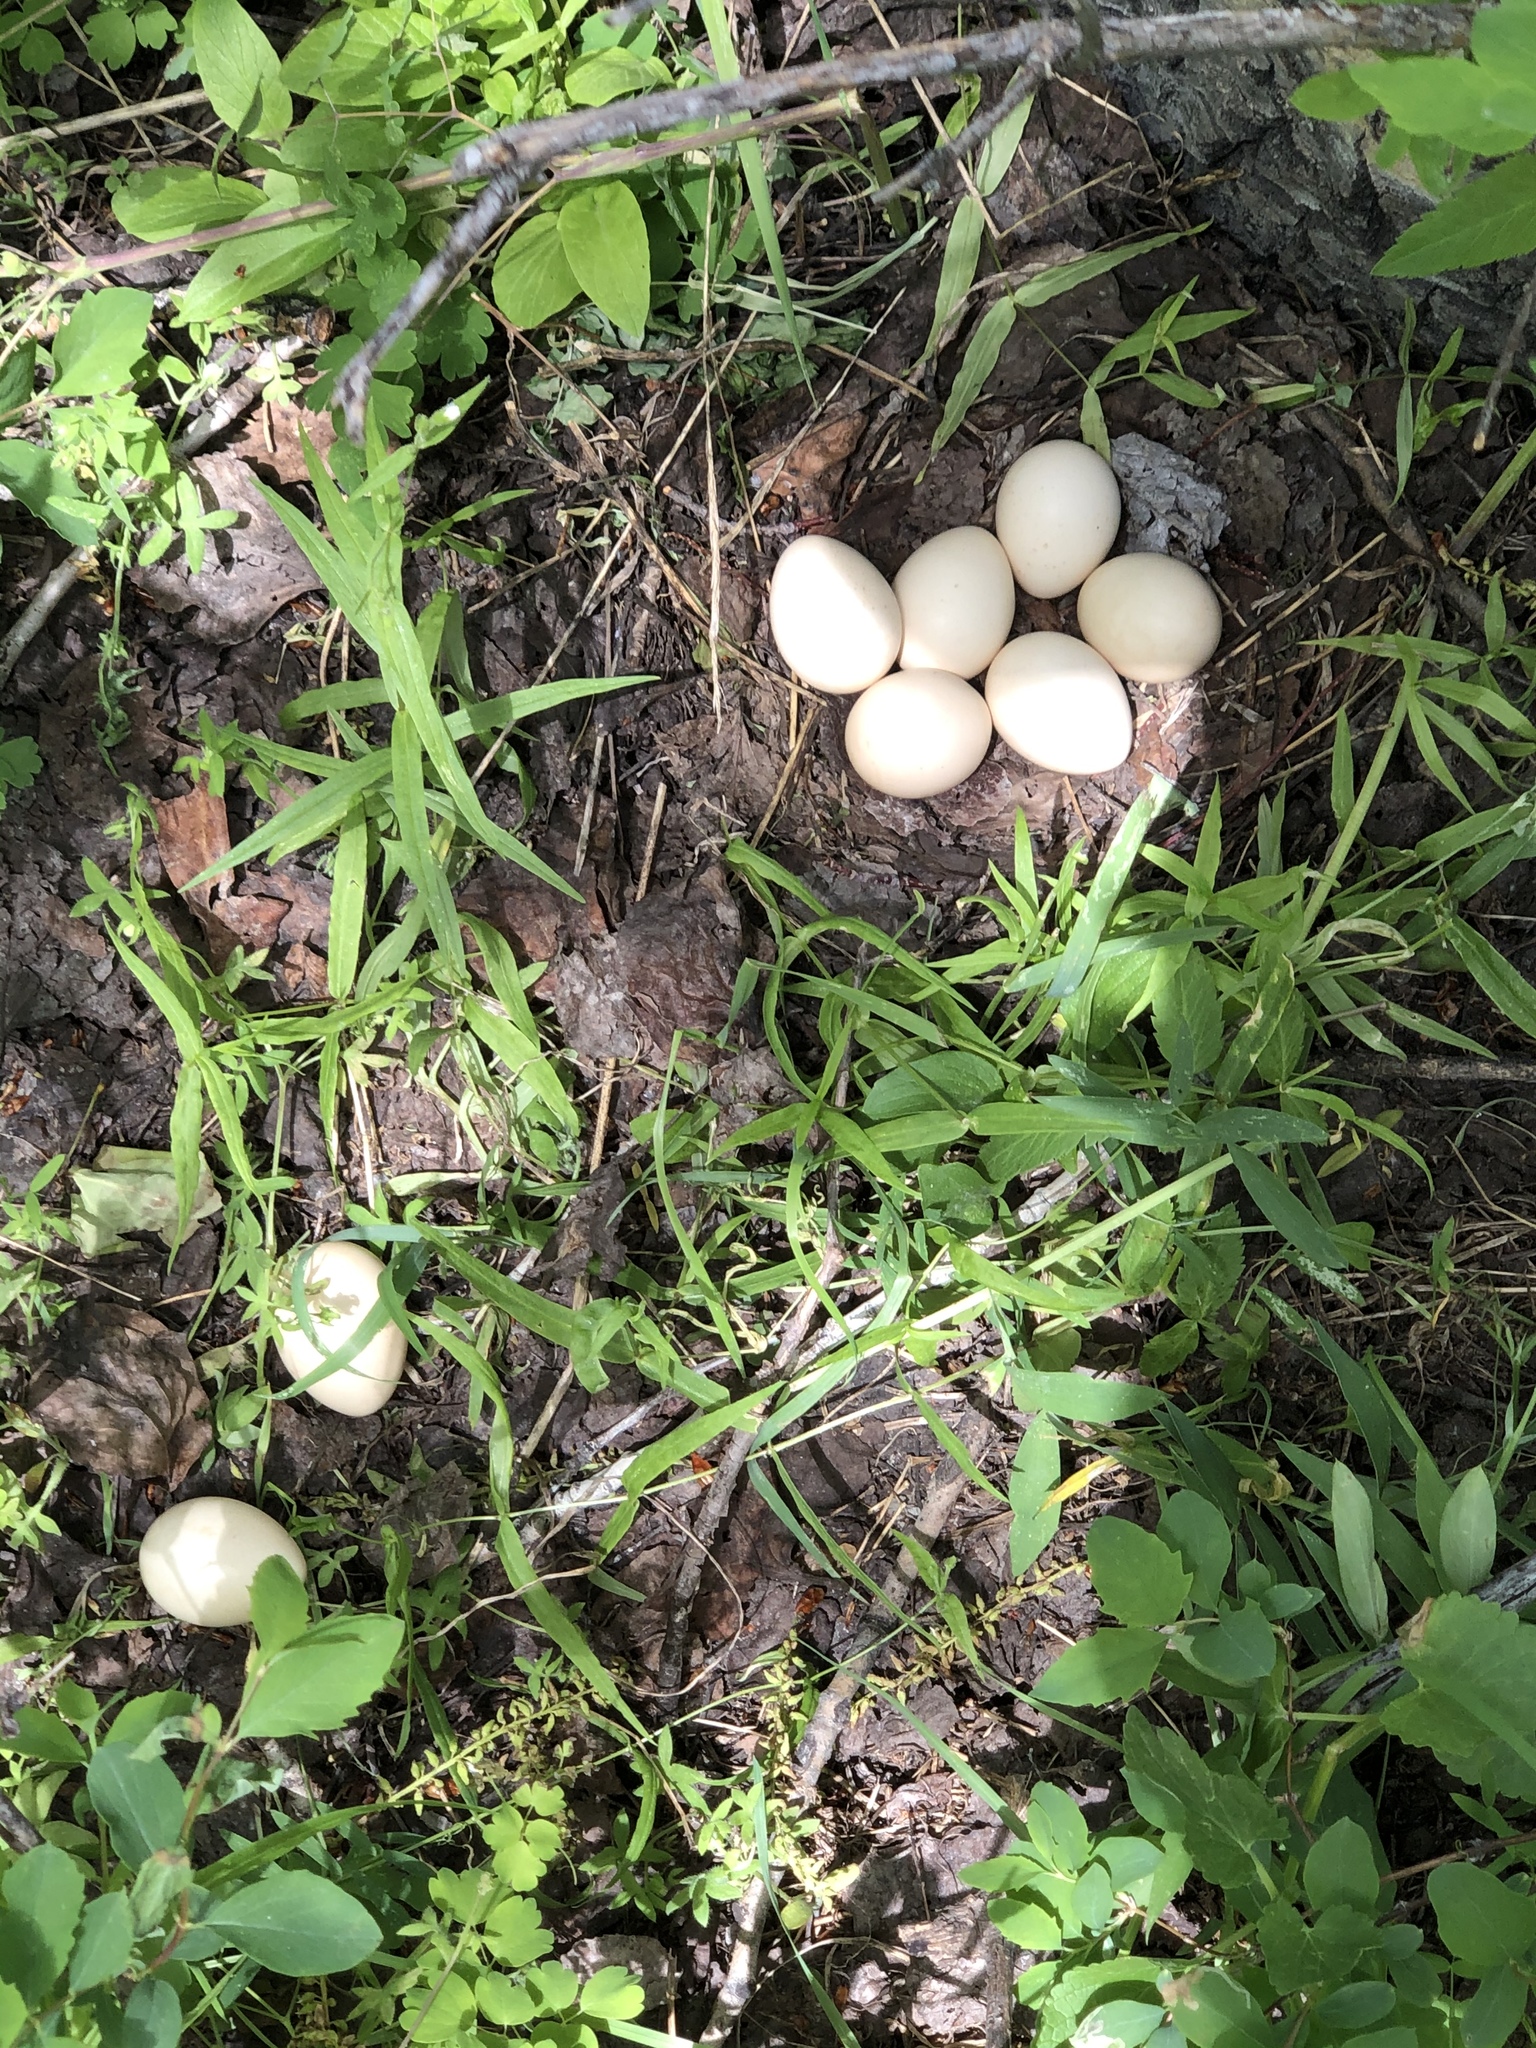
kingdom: Animalia
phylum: Chordata
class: Aves
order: Galliformes
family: Phasianidae
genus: Bonasa
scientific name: Bonasa umbellus
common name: Ruffed grouse
